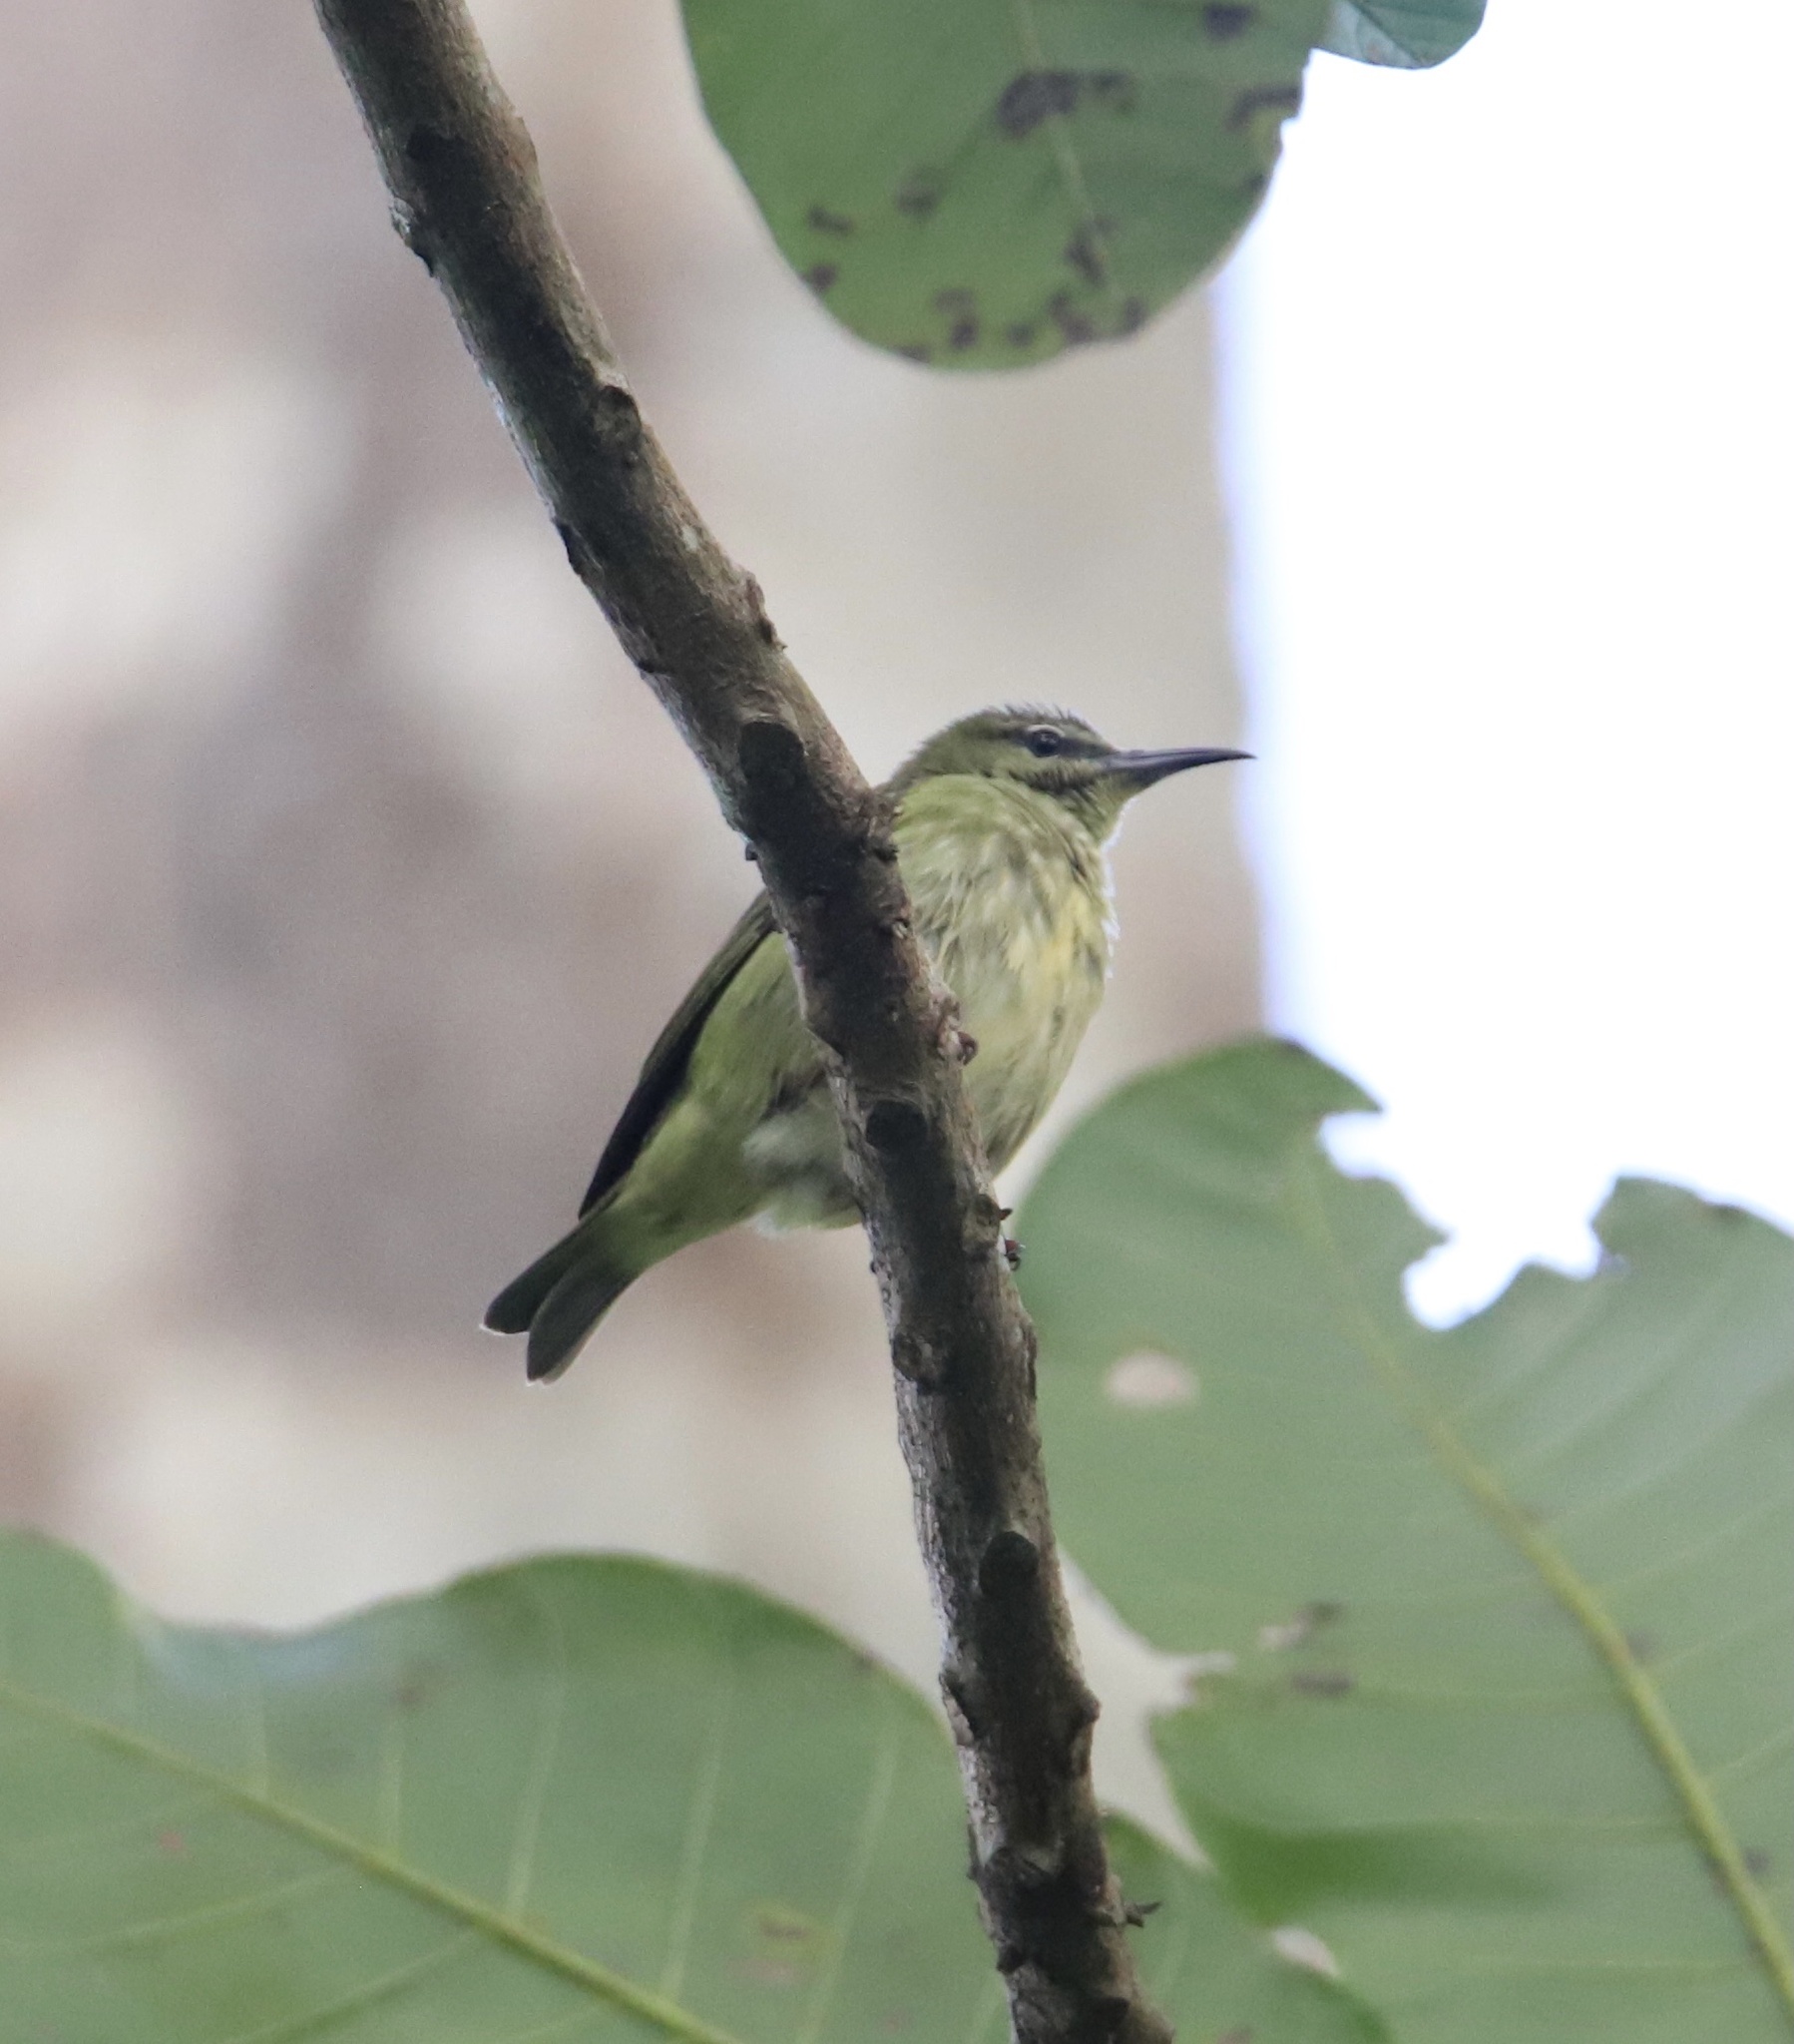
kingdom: Animalia
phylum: Chordata
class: Aves
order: Passeriformes
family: Thraupidae
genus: Cyanerpes
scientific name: Cyanerpes cyaneus
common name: Red-legged honeycreeper
